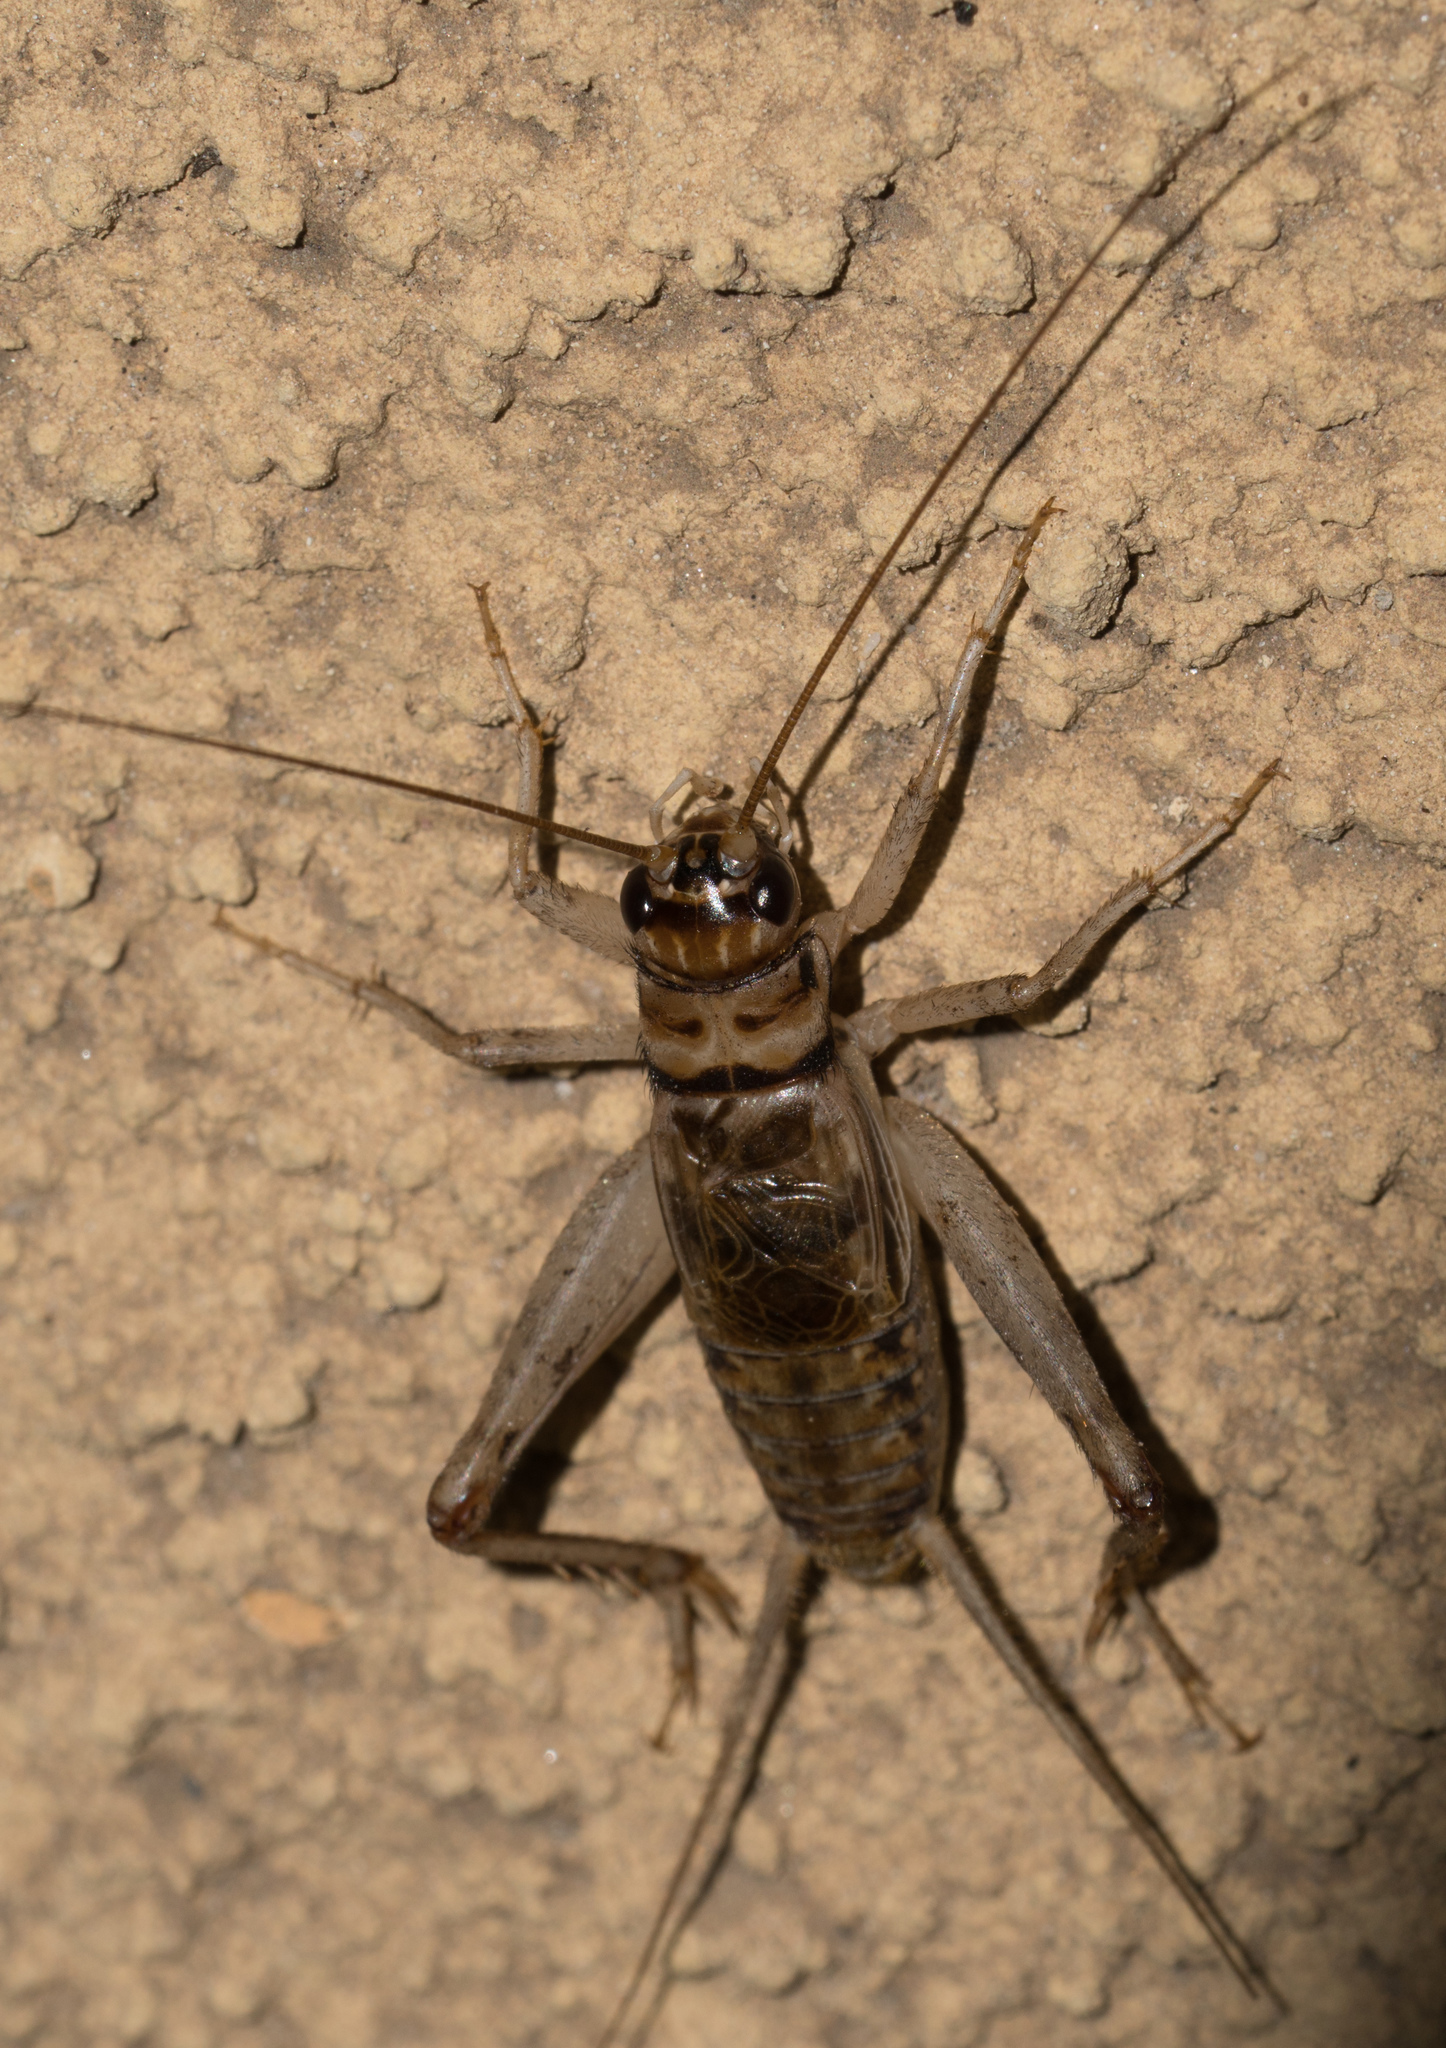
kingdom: Animalia
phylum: Arthropoda
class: Insecta
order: Orthoptera
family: Gryllidae
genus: Gryllodes
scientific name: Gryllodes sigillatus
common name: Tropical house cricket
